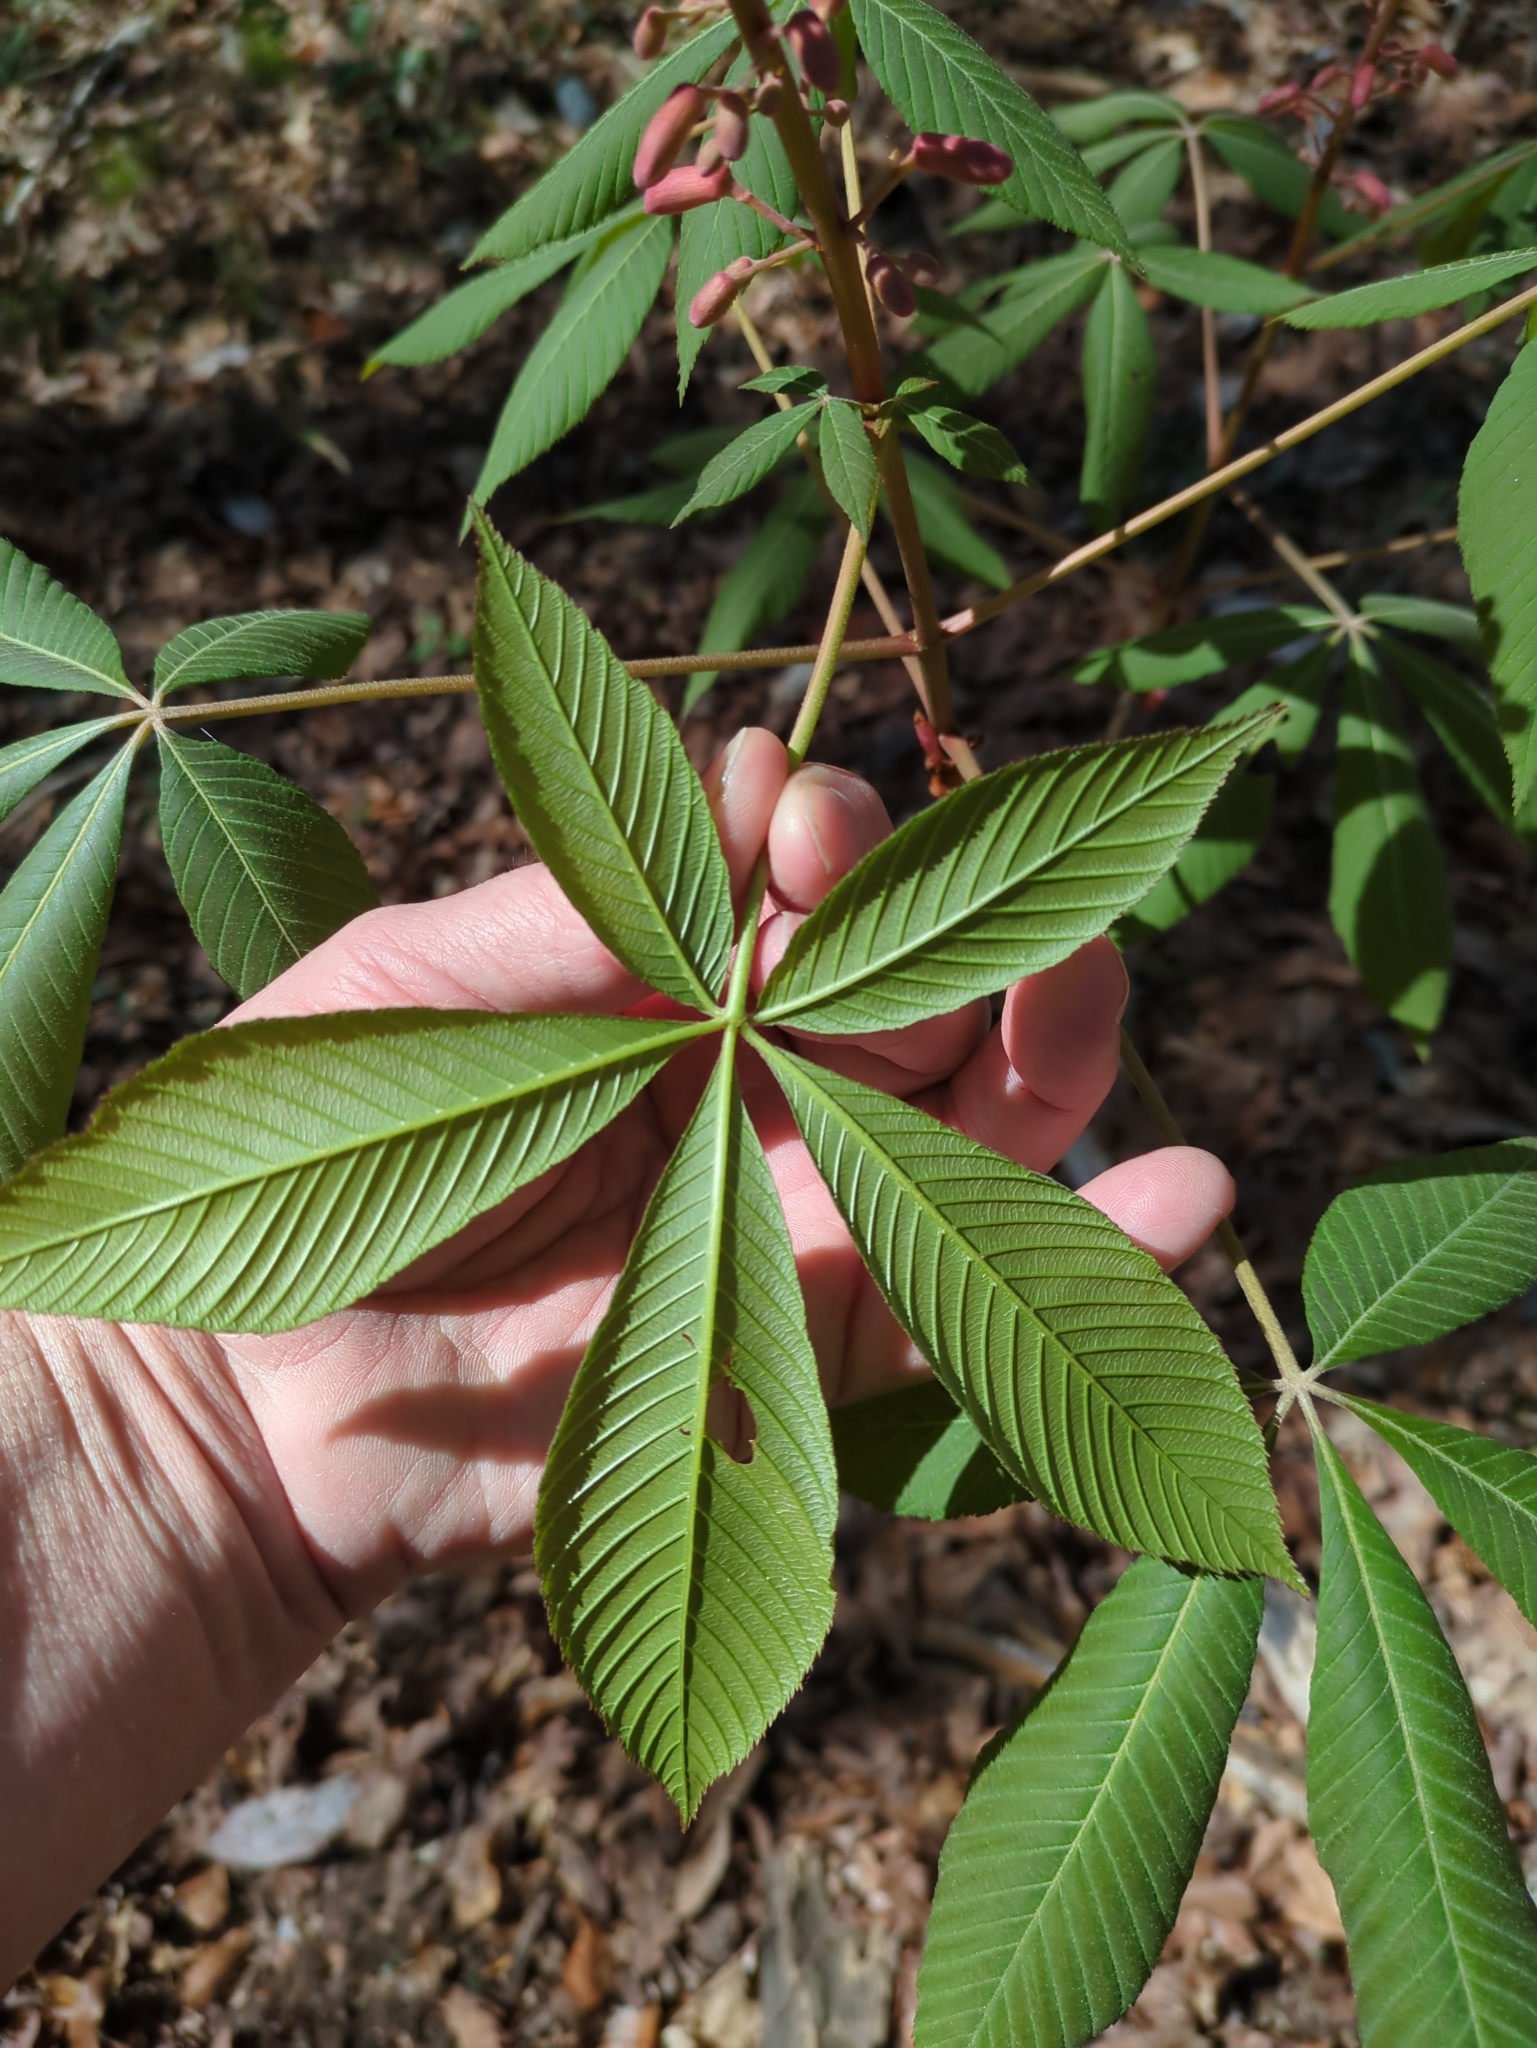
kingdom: Plantae
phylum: Tracheophyta
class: Magnoliopsida
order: Sapindales
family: Sapindaceae
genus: Aesculus
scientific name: Aesculus pavia
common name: Red buckeye
